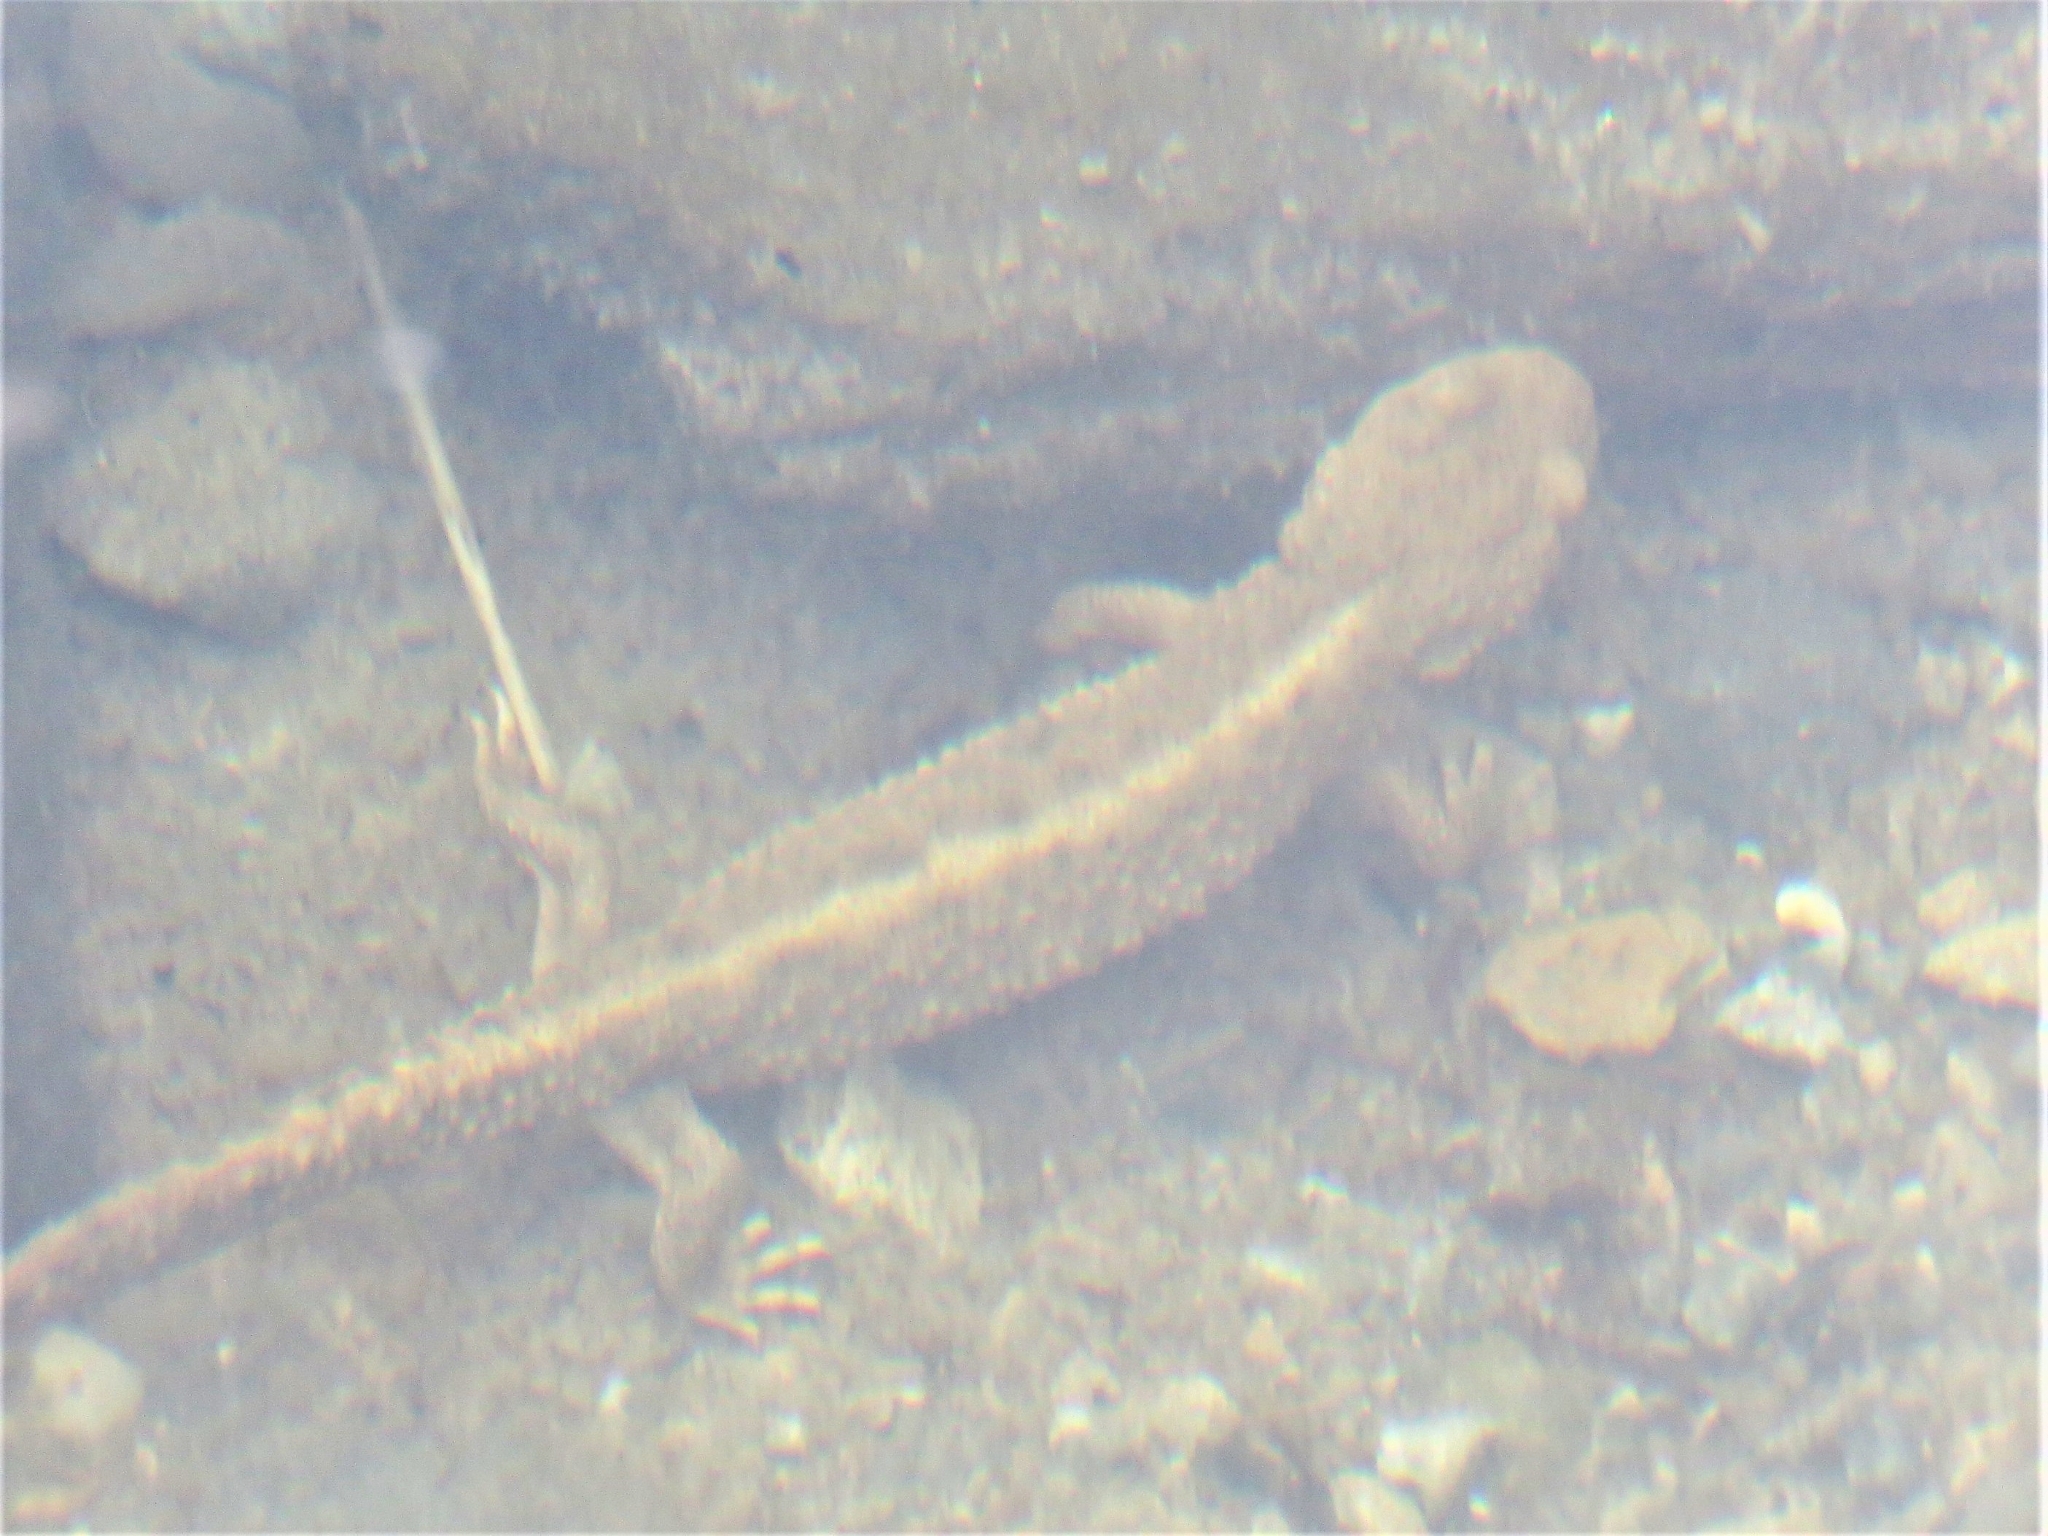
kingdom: Animalia
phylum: Chordata
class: Amphibia
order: Caudata
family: Salamandridae
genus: Calotriton
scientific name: Calotriton asper
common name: Pyrenean brook salamander
